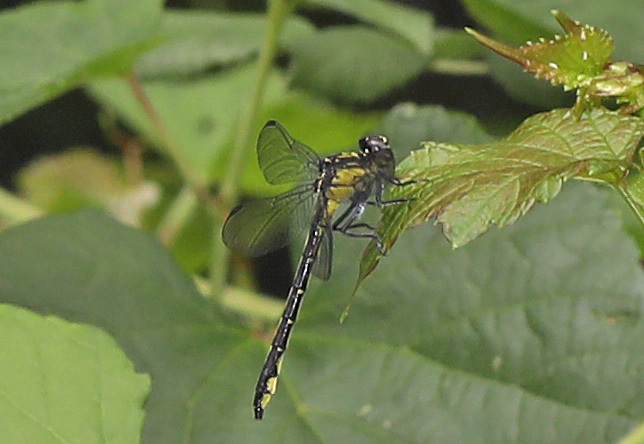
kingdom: Animalia
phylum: Arthropoda
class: Insecta
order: Odonata
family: Gomphidae
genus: Stenogomphurus
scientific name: Stenogomphurus rogersi
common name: Sable clubtail
